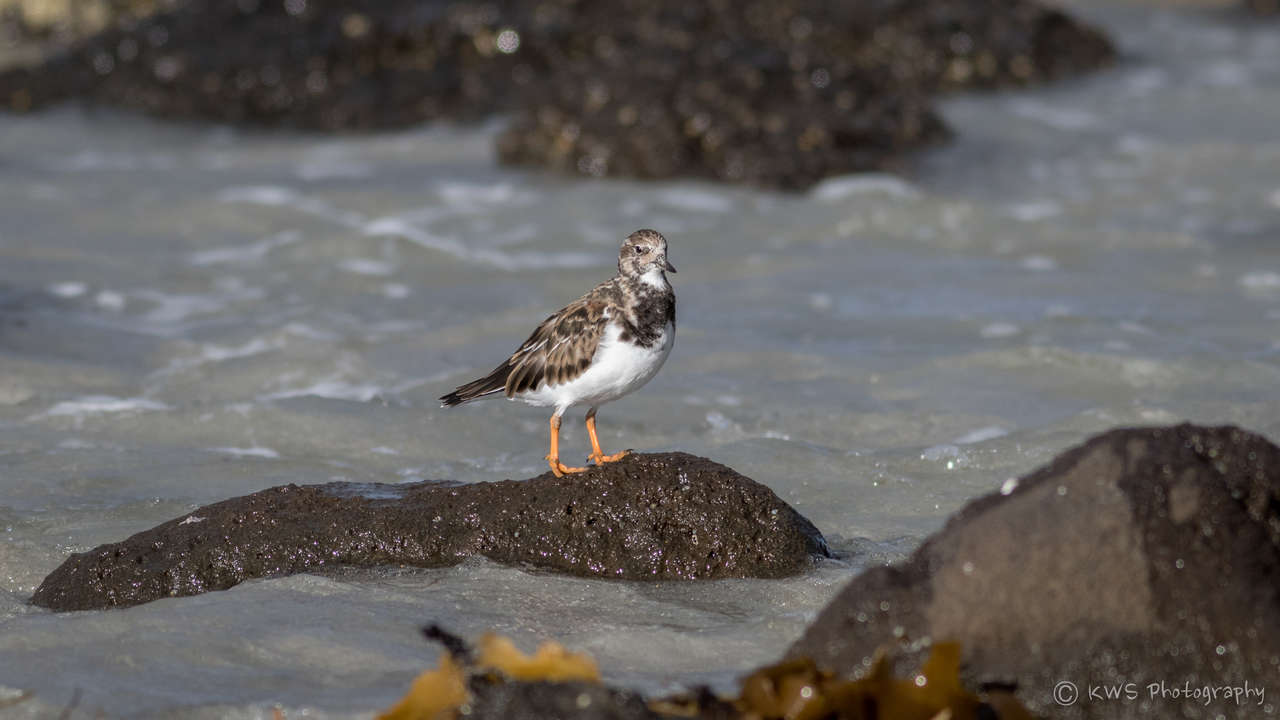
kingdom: Animalia
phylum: Chordata
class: Aves
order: Charadriiformes
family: Scolopacidae
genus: Arenaria
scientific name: Arenaria interpres
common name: Ruddy turnstone
